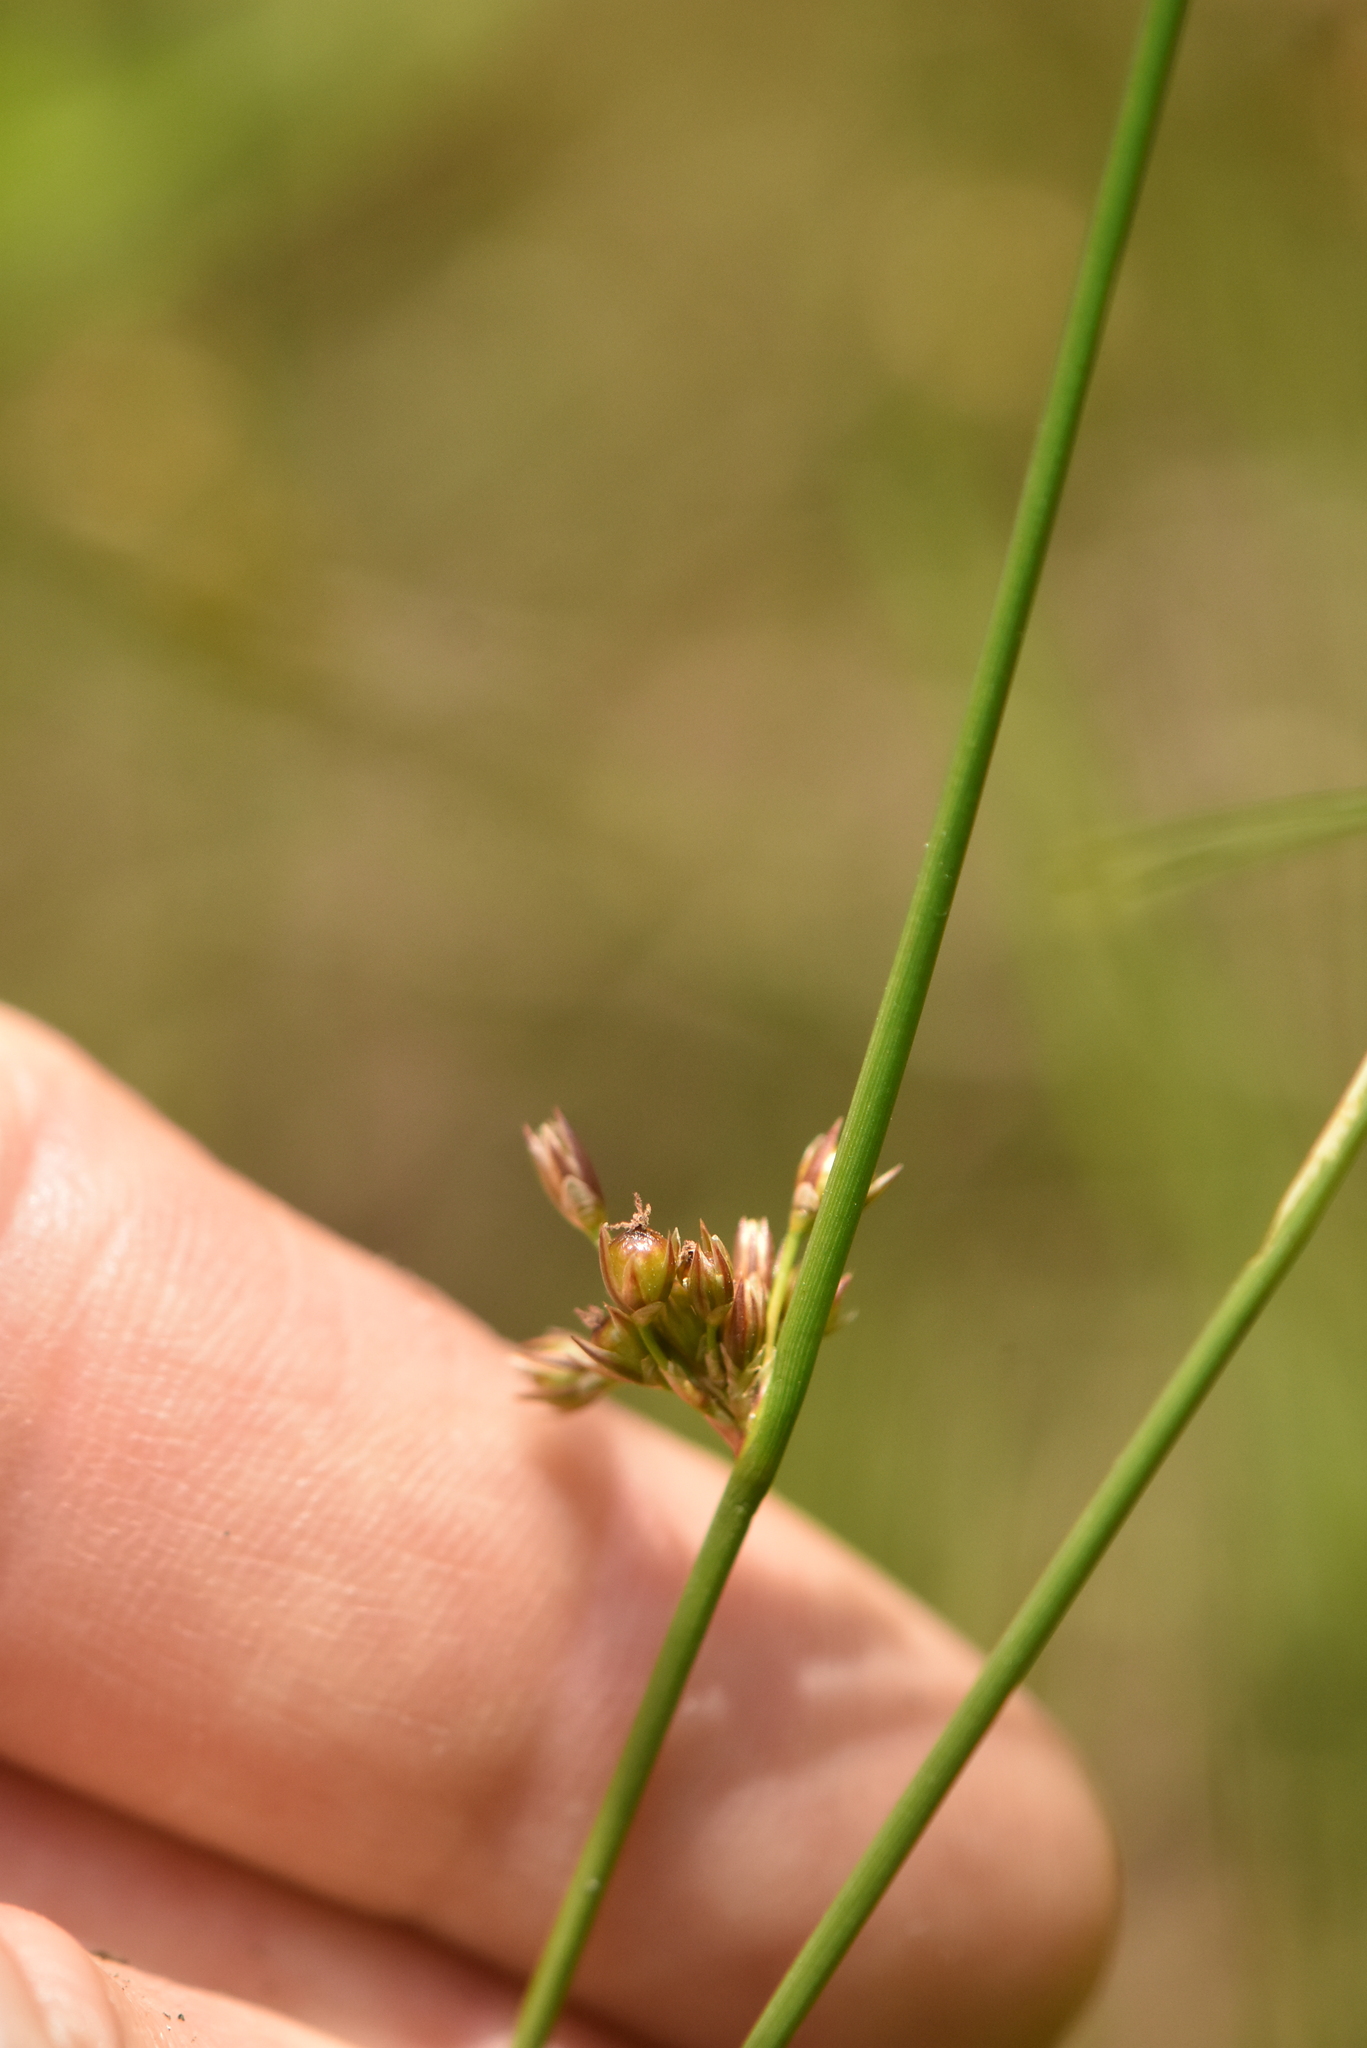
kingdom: Plantae
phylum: Tracheophyta
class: Liliopsida
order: Poales
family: Juncaceae
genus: Juncus
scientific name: Juncus filiformis
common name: Thread rush
